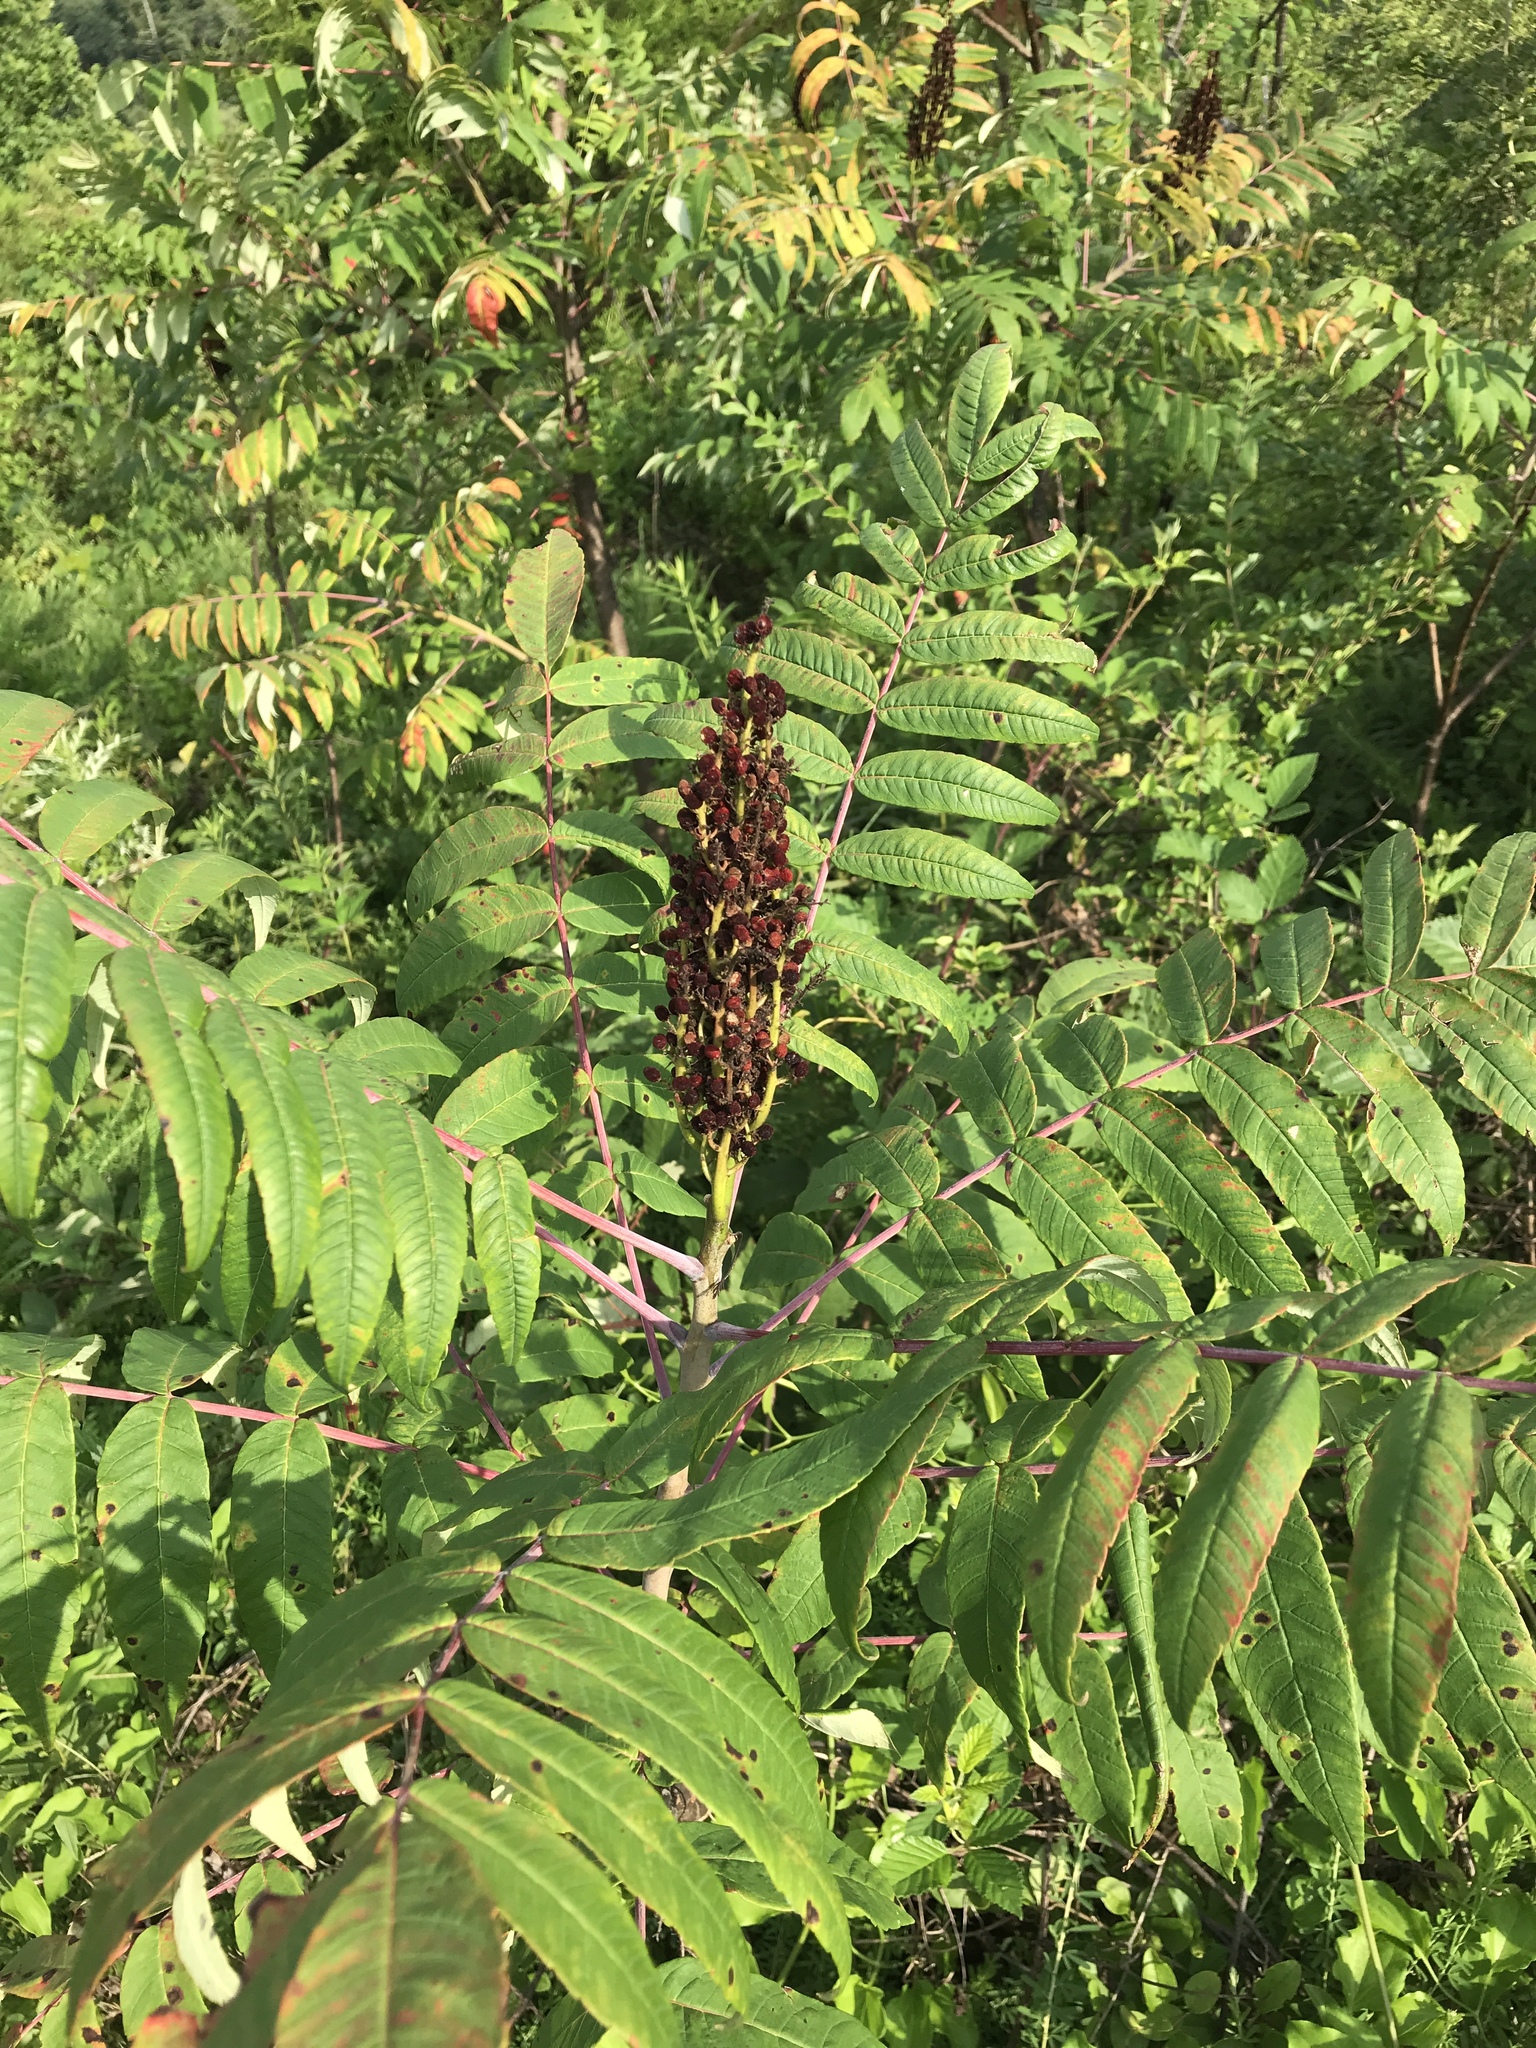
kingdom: Plantae
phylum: Tracheophyta
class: Magnoliopsida
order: Sapindales
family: Anacardiaceae
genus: Rhus
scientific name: Rhus glabra
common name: Scarlet sumac
